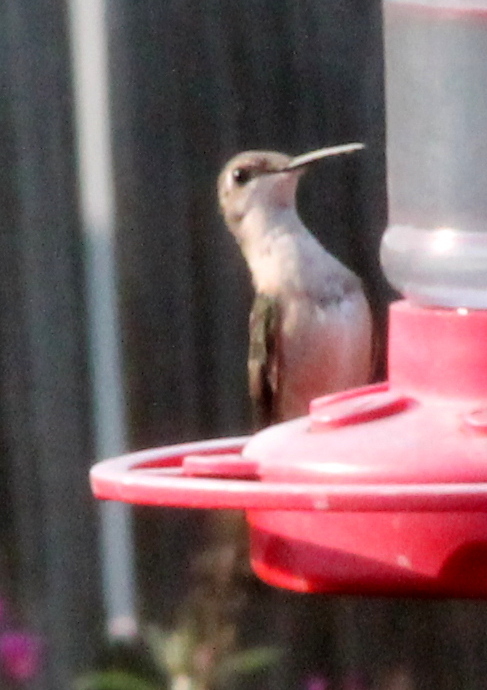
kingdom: Animalia
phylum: Chordata
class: Aves
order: Apodiformes
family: Trochilidae
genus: Archilochus
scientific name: Archilochus colubris
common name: Ruby-throated hummingbird
